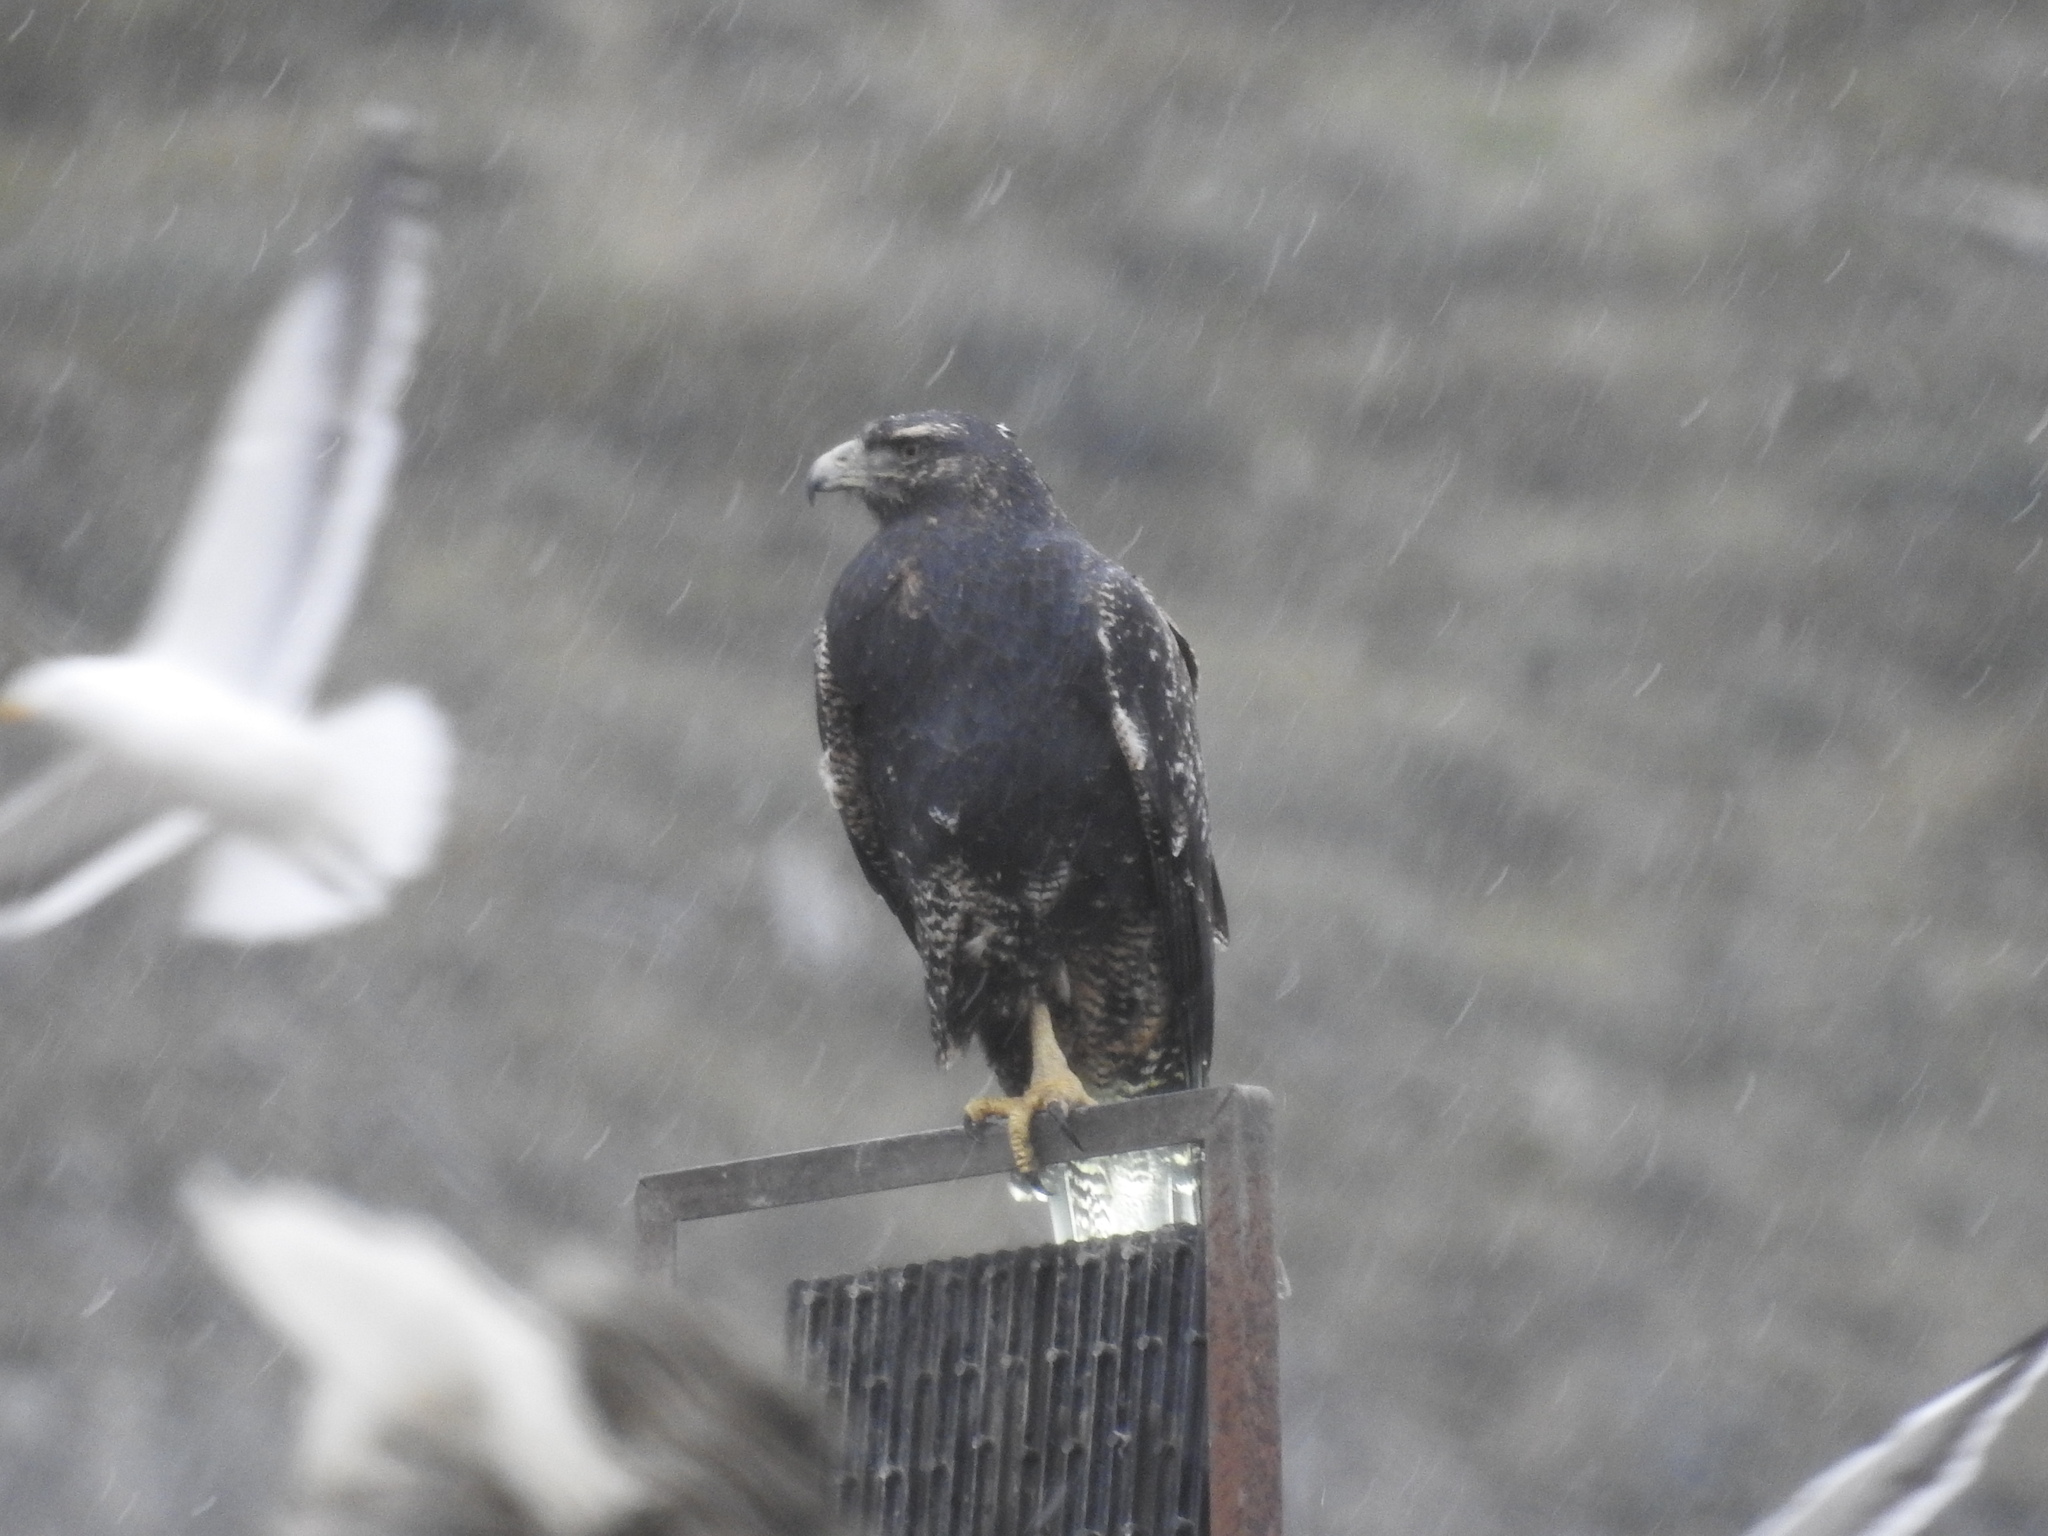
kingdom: Animalia
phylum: Chordata
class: Aves
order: Accipitriformes
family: Accipitridae
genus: Geranoaetus
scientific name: Geranoaetus melanoleucus
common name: Black-chested buzzard-eagle
